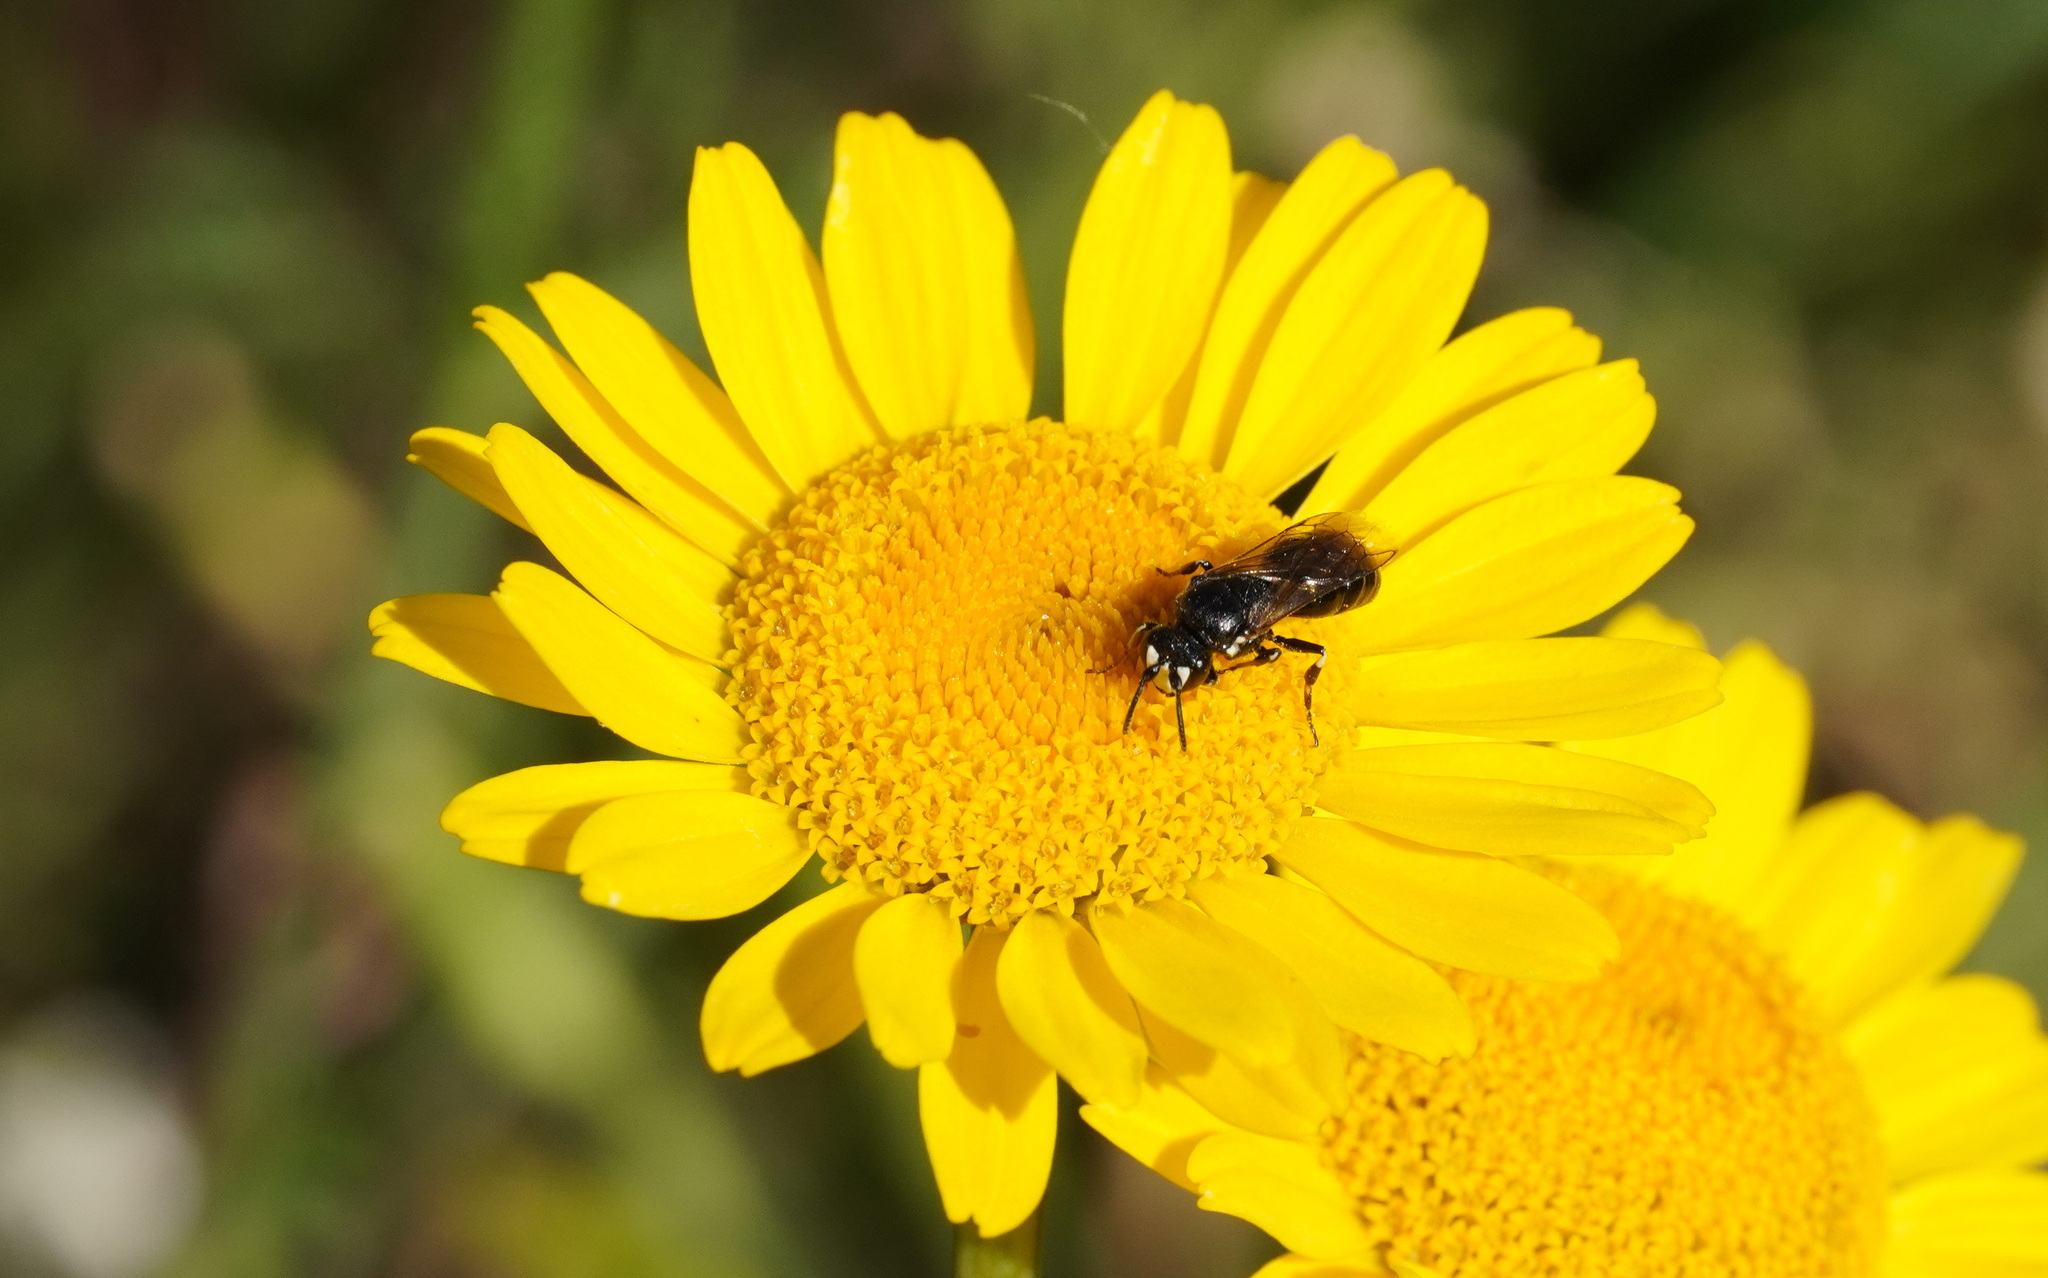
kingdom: Animalia
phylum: Arthropoda
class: Insecta
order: Hymenoptera
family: Colletidae
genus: Hylaeus
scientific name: Hylaeus nigritus
